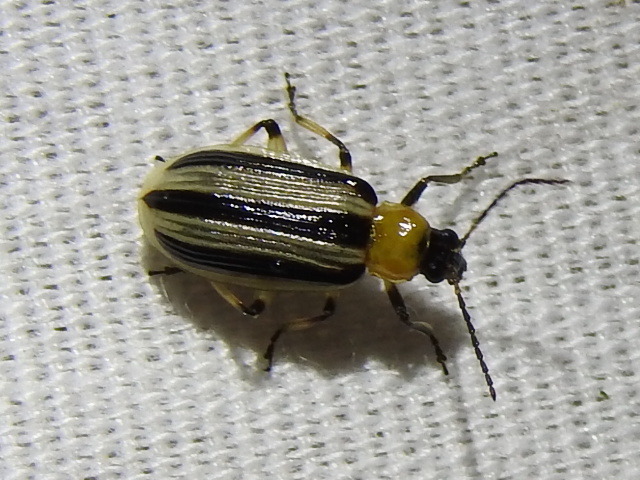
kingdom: Animalia
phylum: Arthropoda
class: Insecta
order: Coleoptera
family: Chrysomelidae
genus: Acalymma
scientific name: Acalymma vittatum
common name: Striped cucumber beetle
